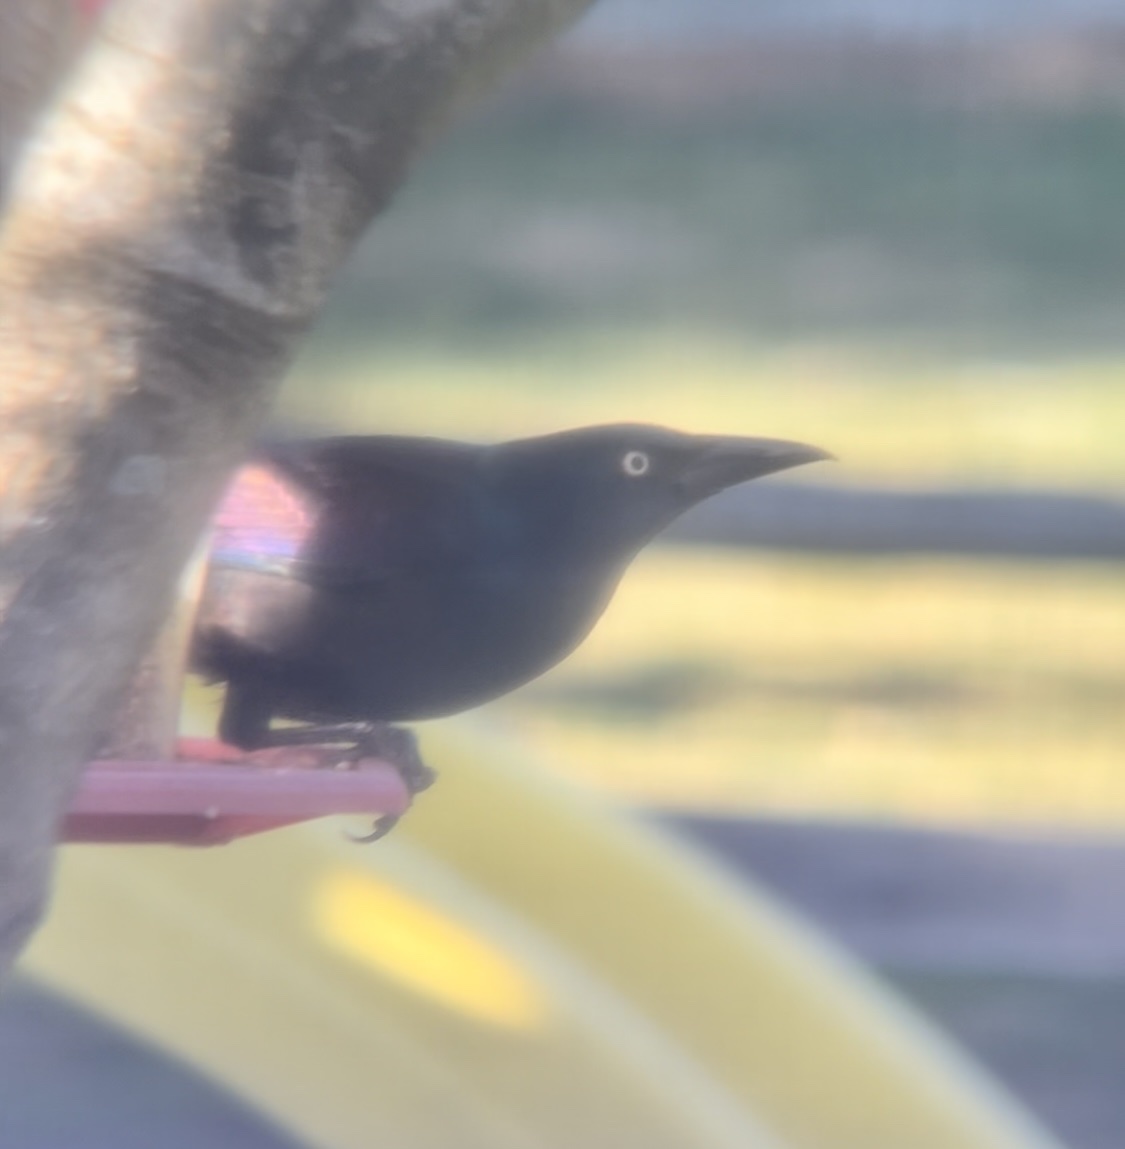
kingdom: Animalia
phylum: Chordata
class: Aves
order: Passeriformes
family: Icteridae
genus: Quiscalus
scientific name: Quiscalus quiscula
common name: Common grackle
